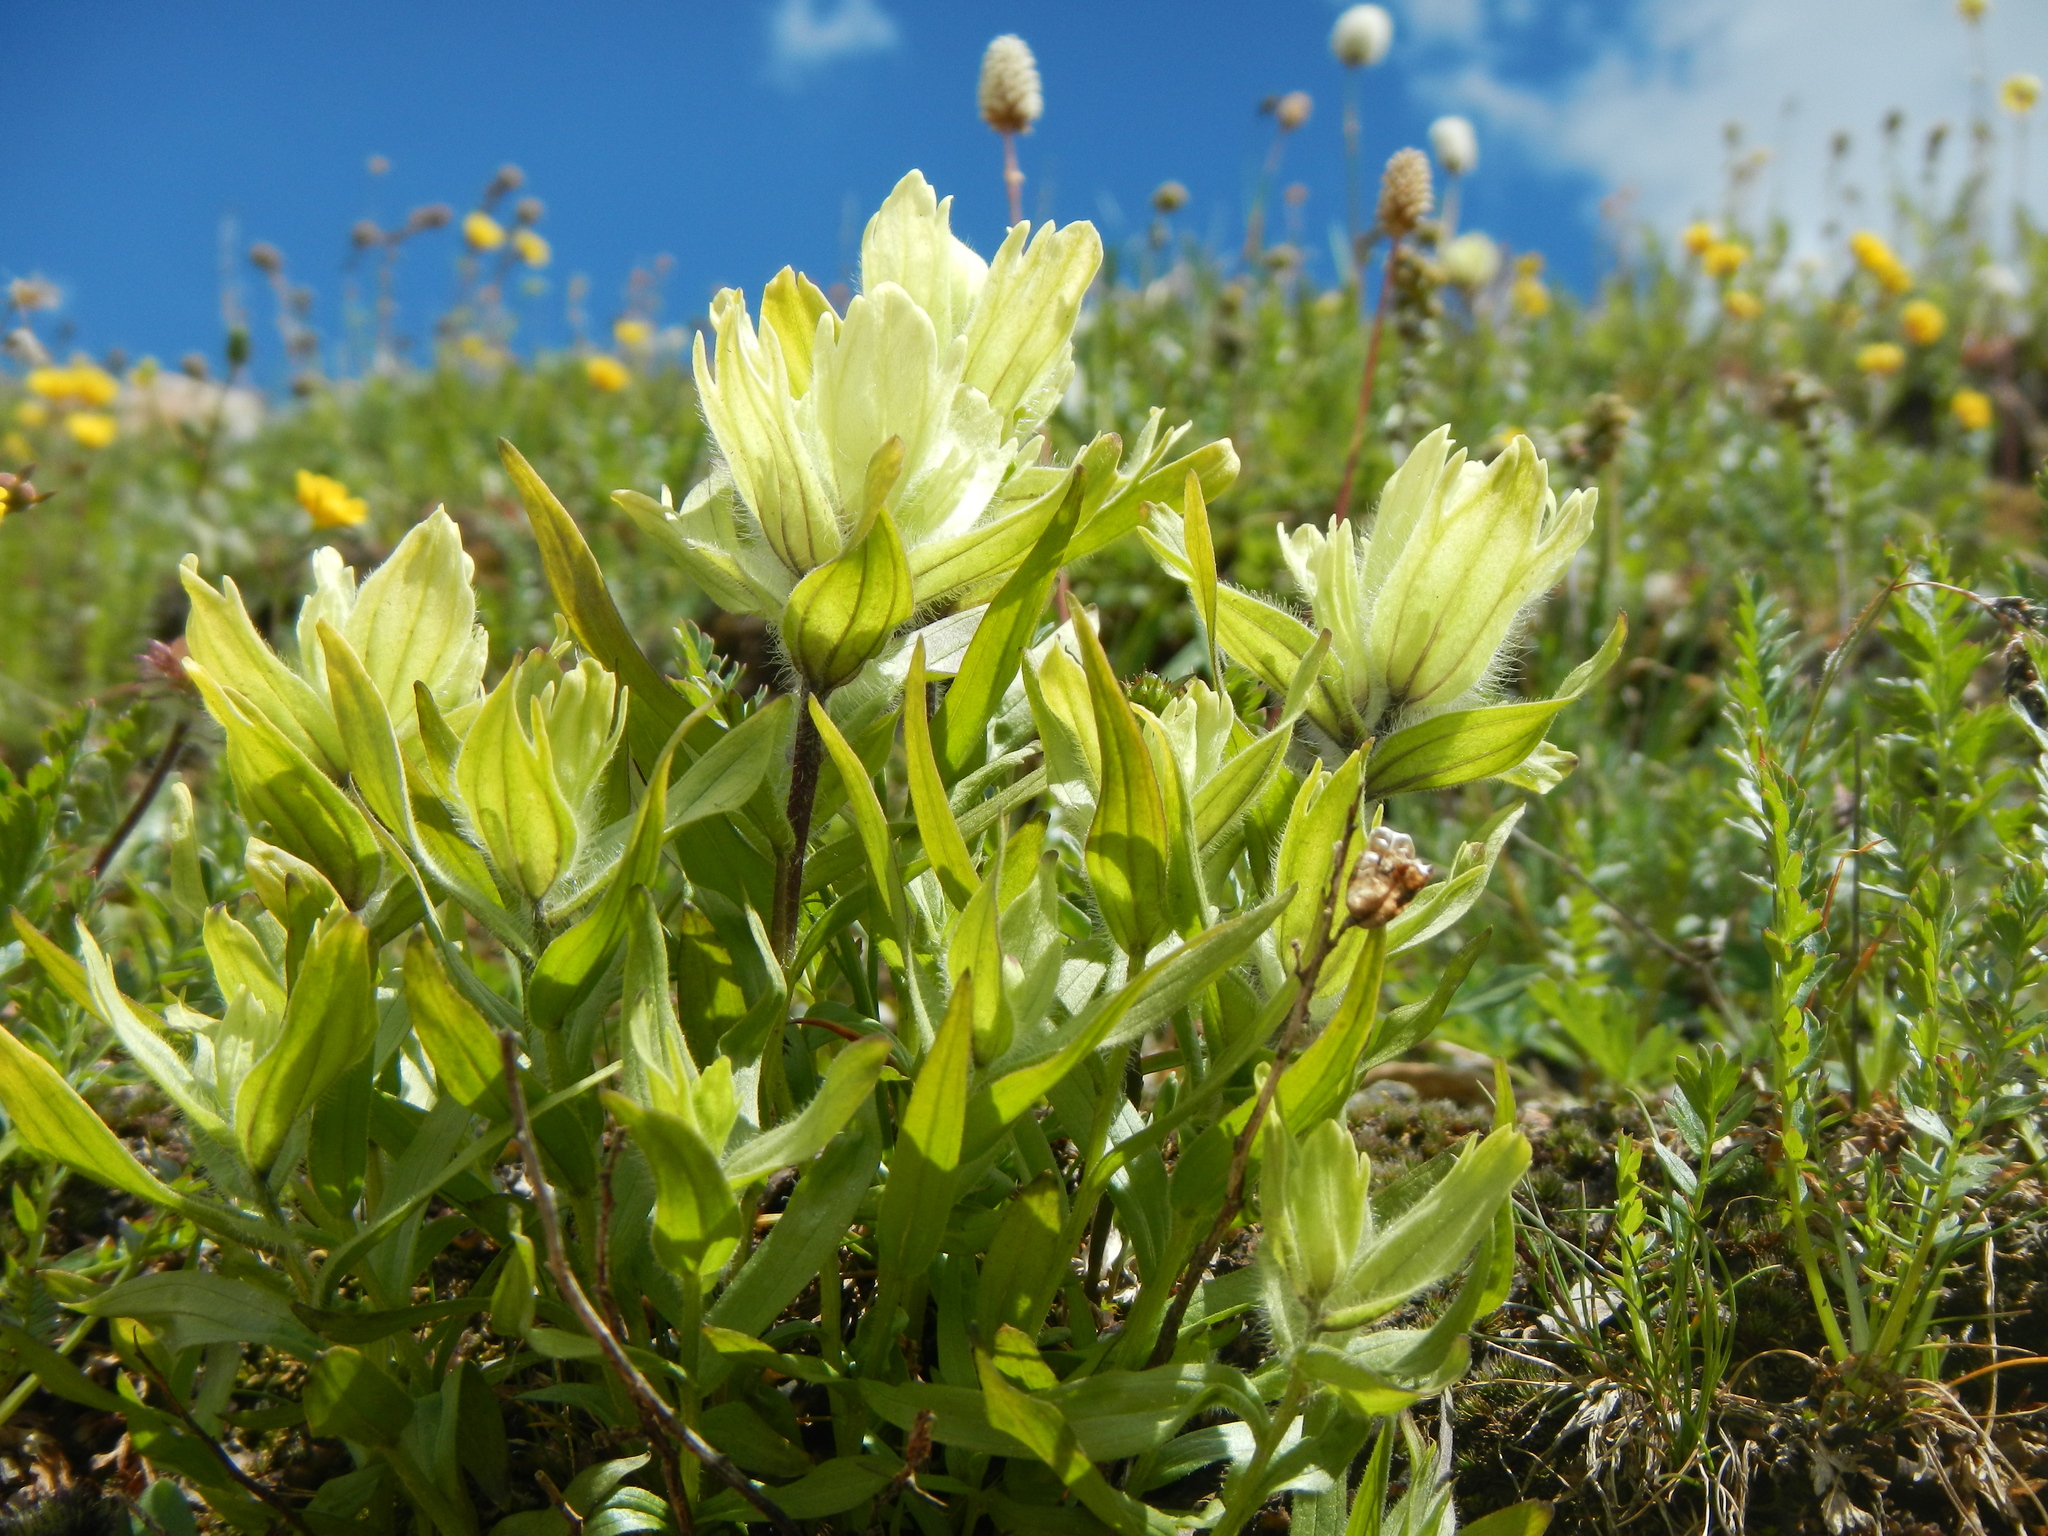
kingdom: Plantae
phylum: Tracheophyta
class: Magnoliopsida
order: Lamiales
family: Orobanchaceae
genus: Castilleja
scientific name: Castilleja occidentalis
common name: Western paintbrush
